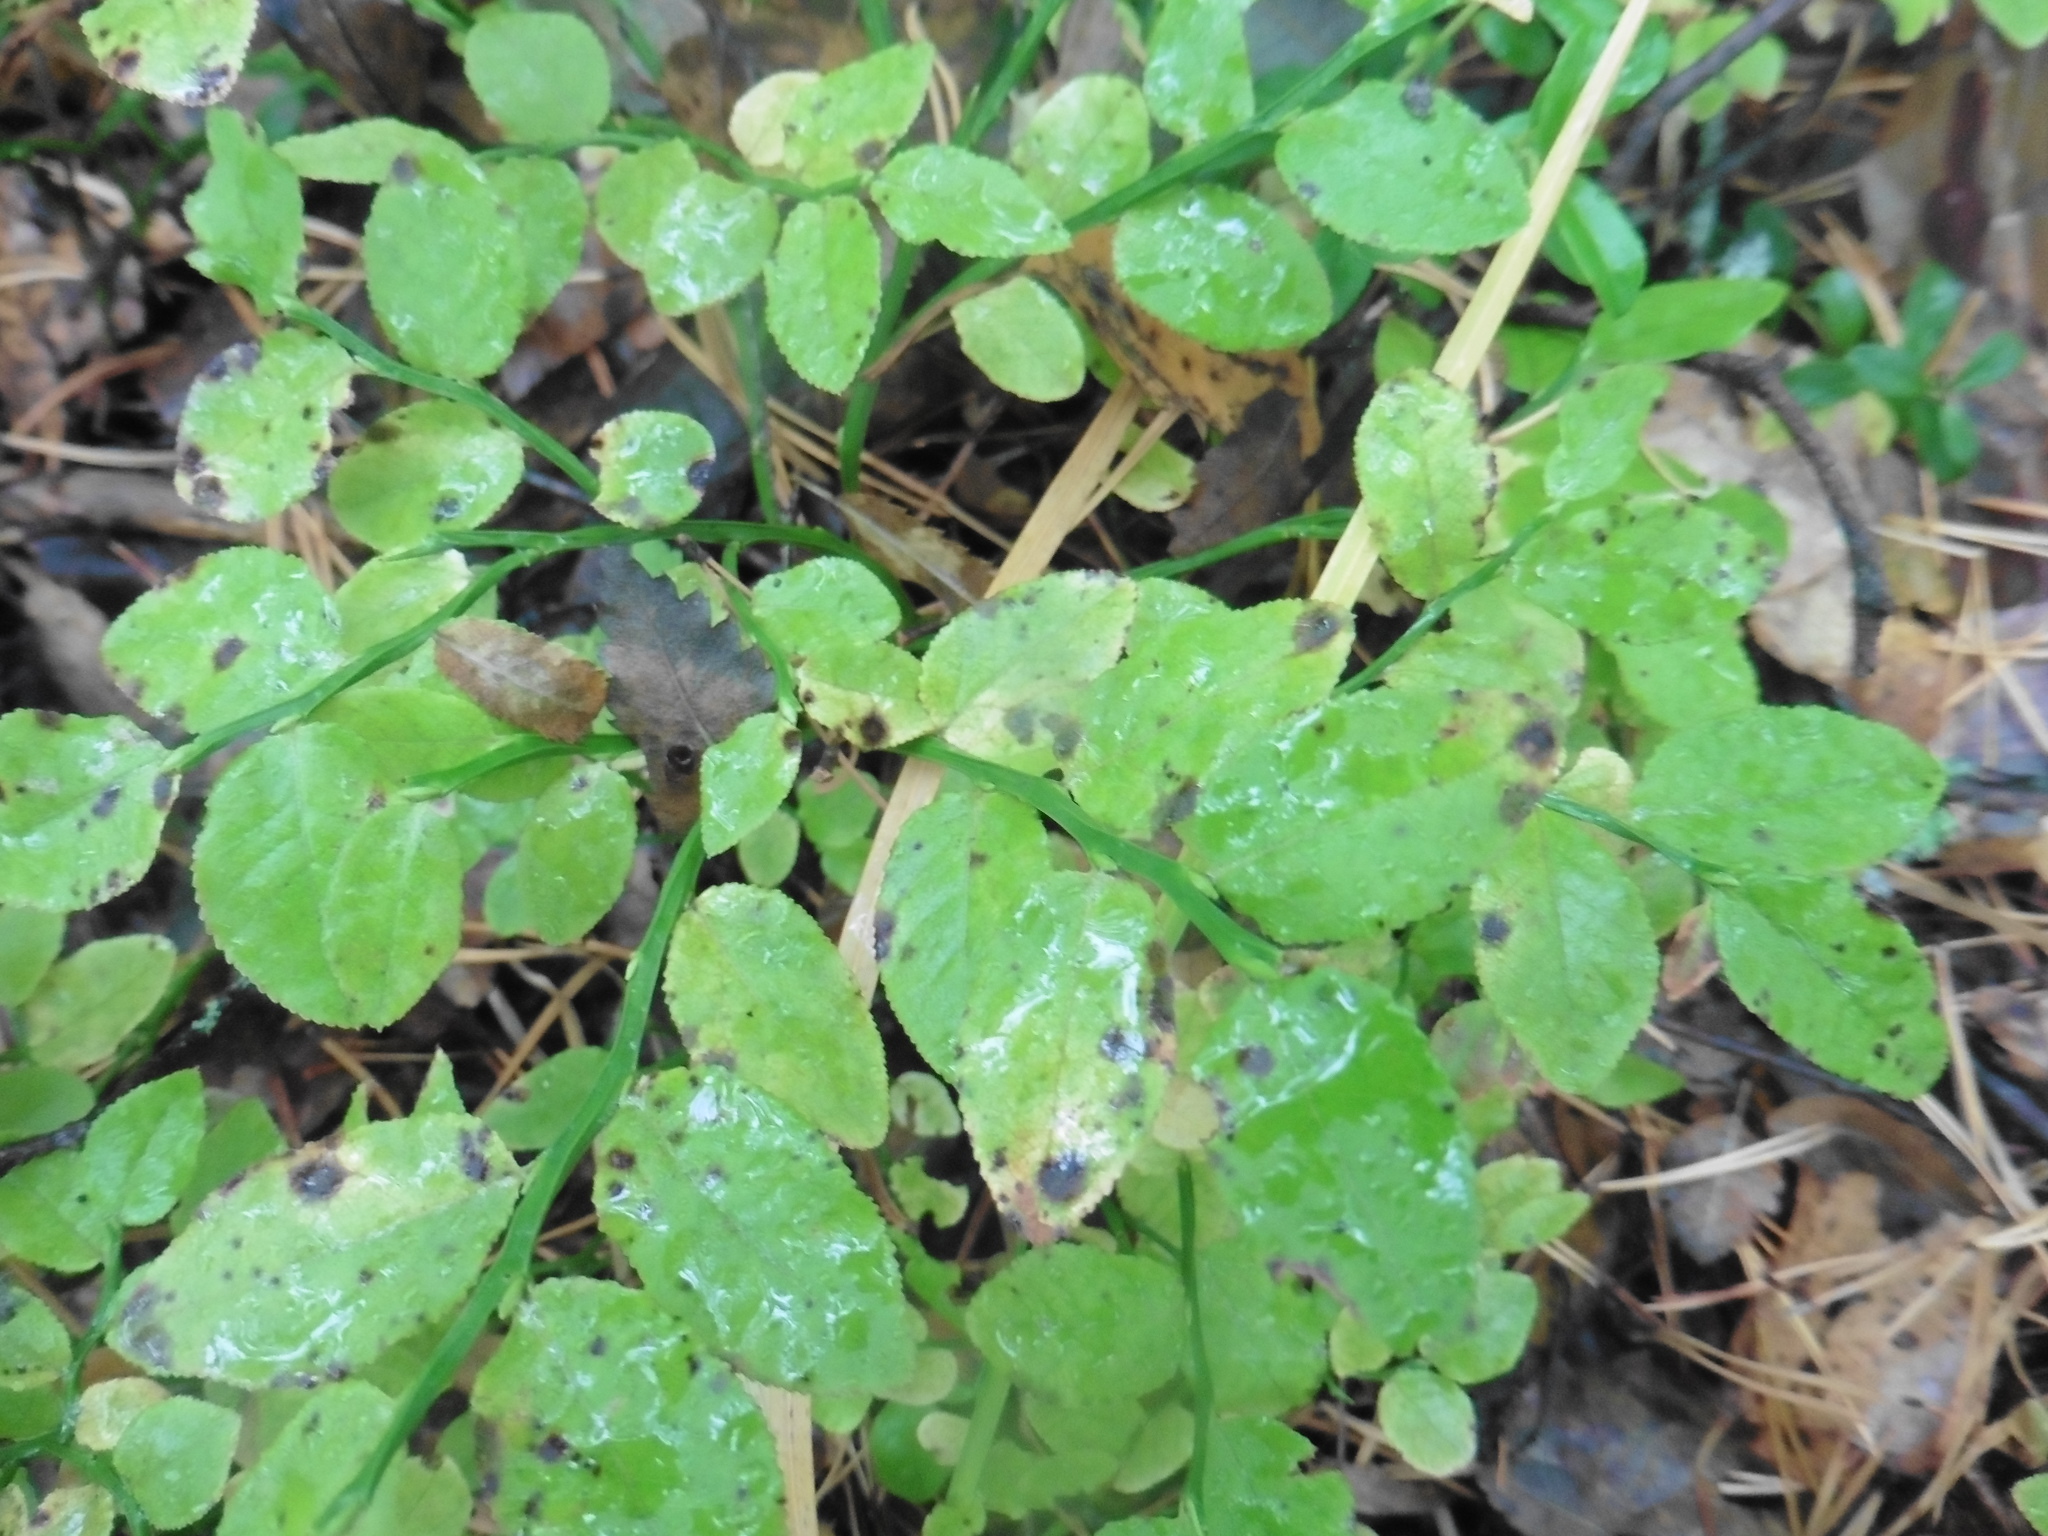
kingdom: Plantae
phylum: Tracheophyta
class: Magnoliopsida
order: Ericales
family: Ericaceae
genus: Vaccinium
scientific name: Vaccinium myrtillus
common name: Bilberry
